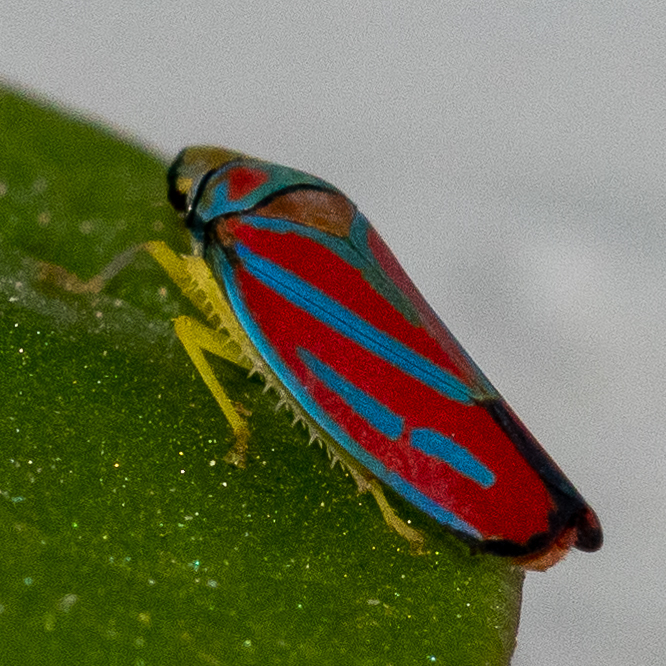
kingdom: Animalia
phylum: Arthropoda
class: Insecta
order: Hemiptera
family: Cicadellidae
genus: Graphocephala
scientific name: Graphocephala coccinea
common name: Candy-striped leafhopper
